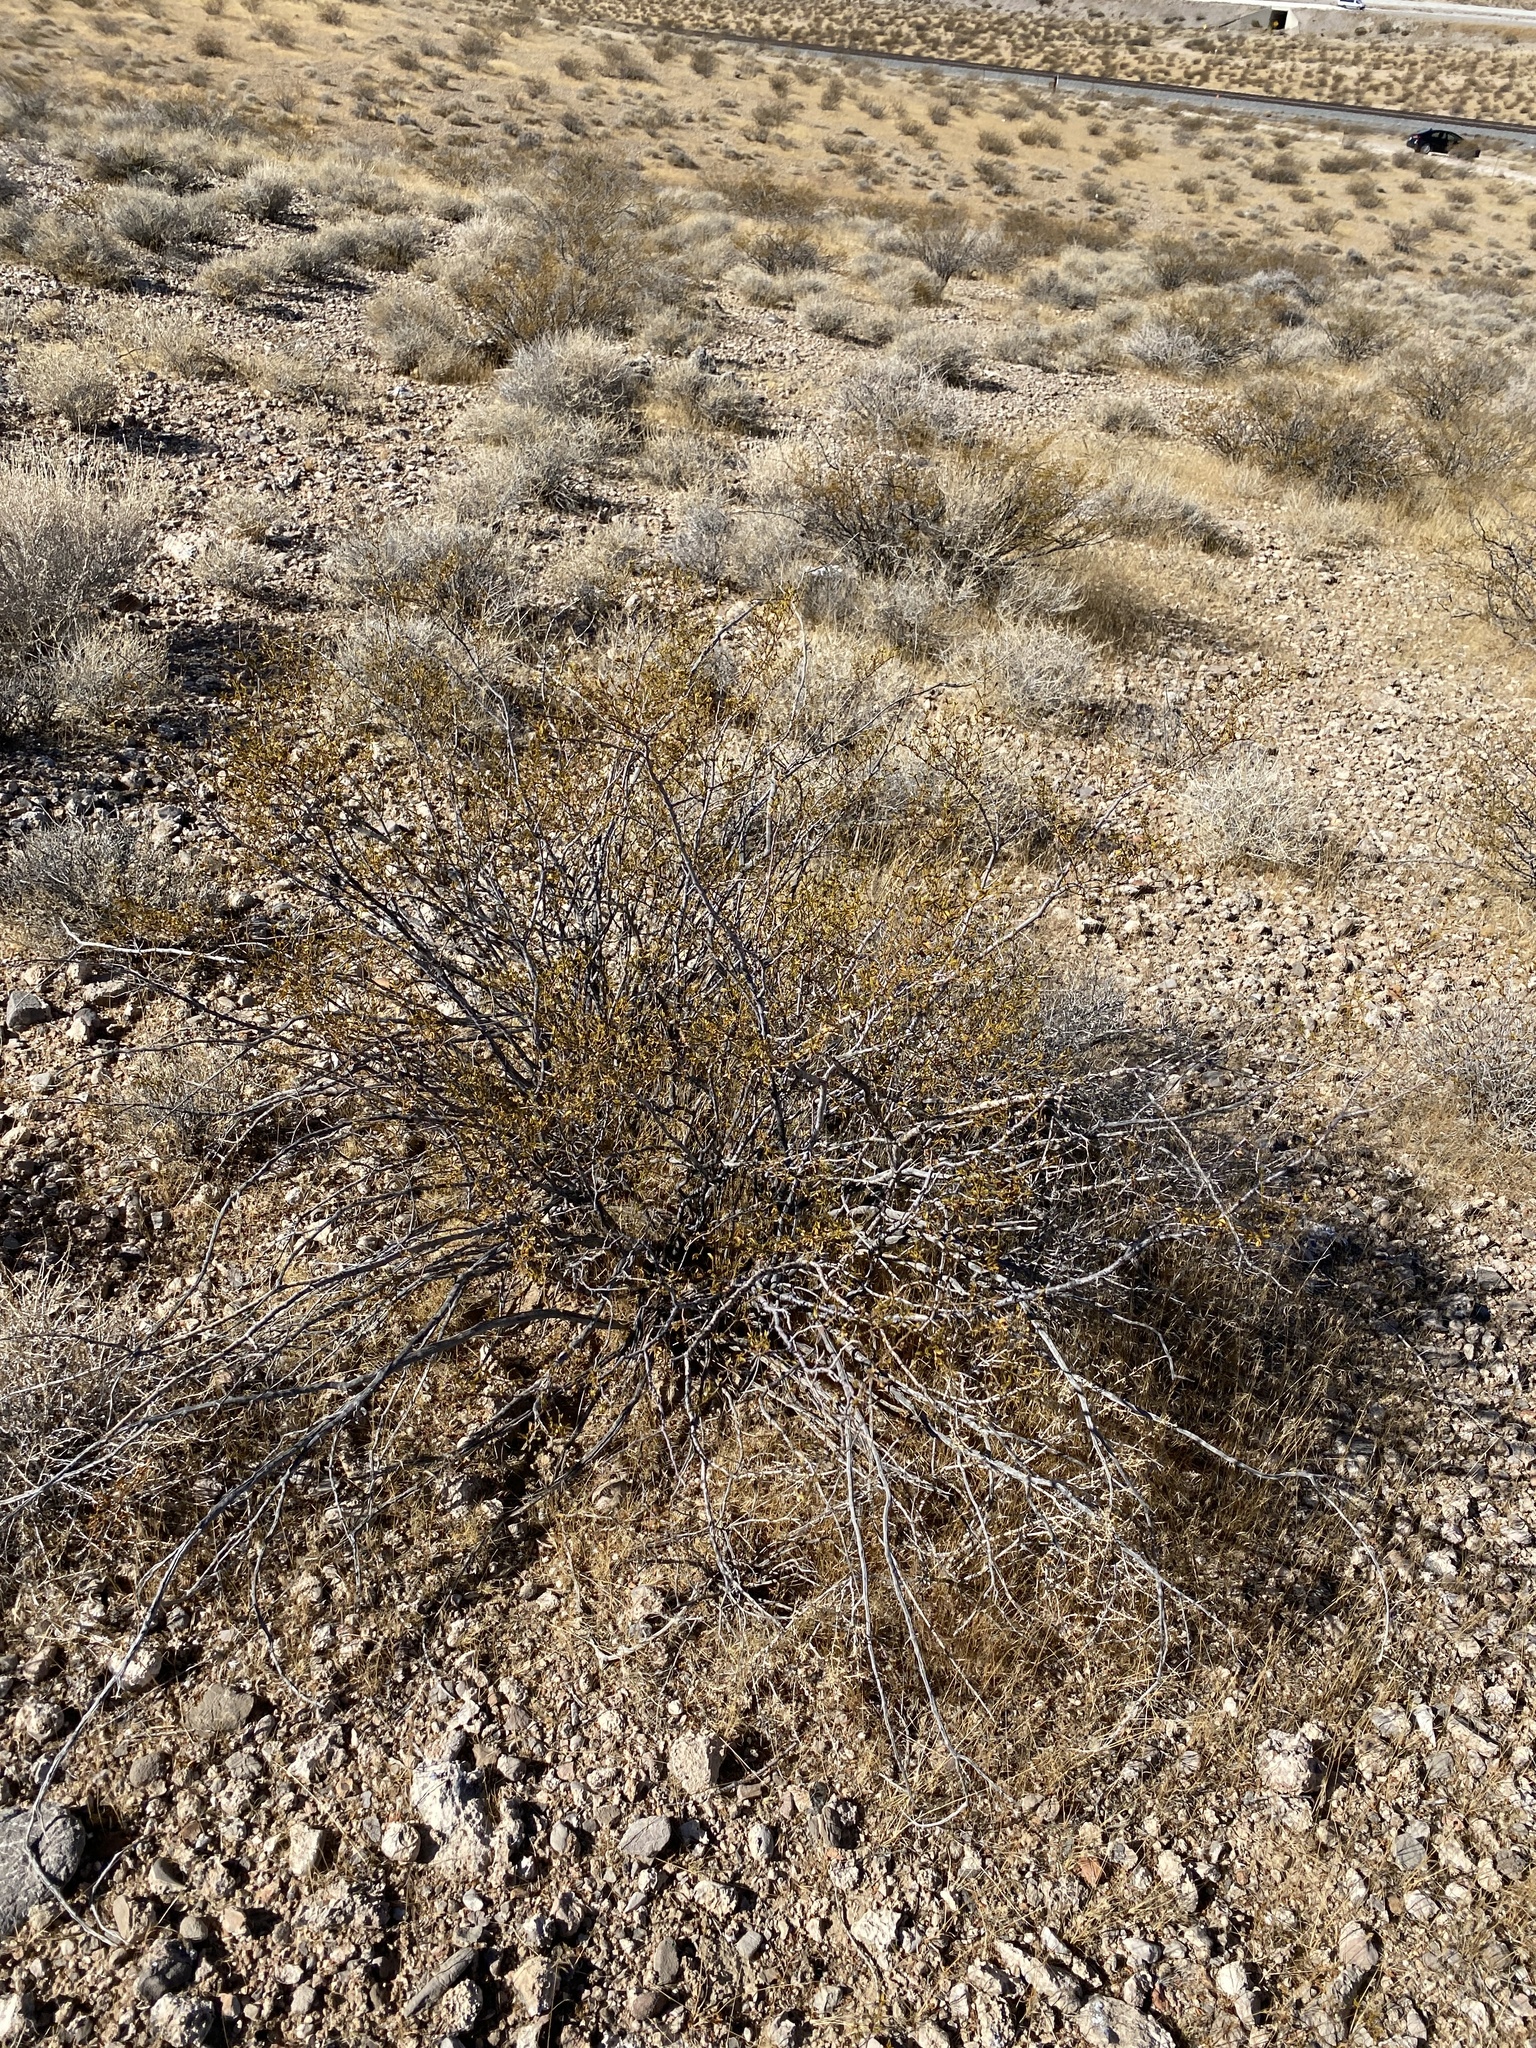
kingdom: Plantae
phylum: Tracheophyta
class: Magnoliopsida
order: Zygophyllales
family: Zygophyllaceae
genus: Larrea
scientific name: Larrea tridentata
